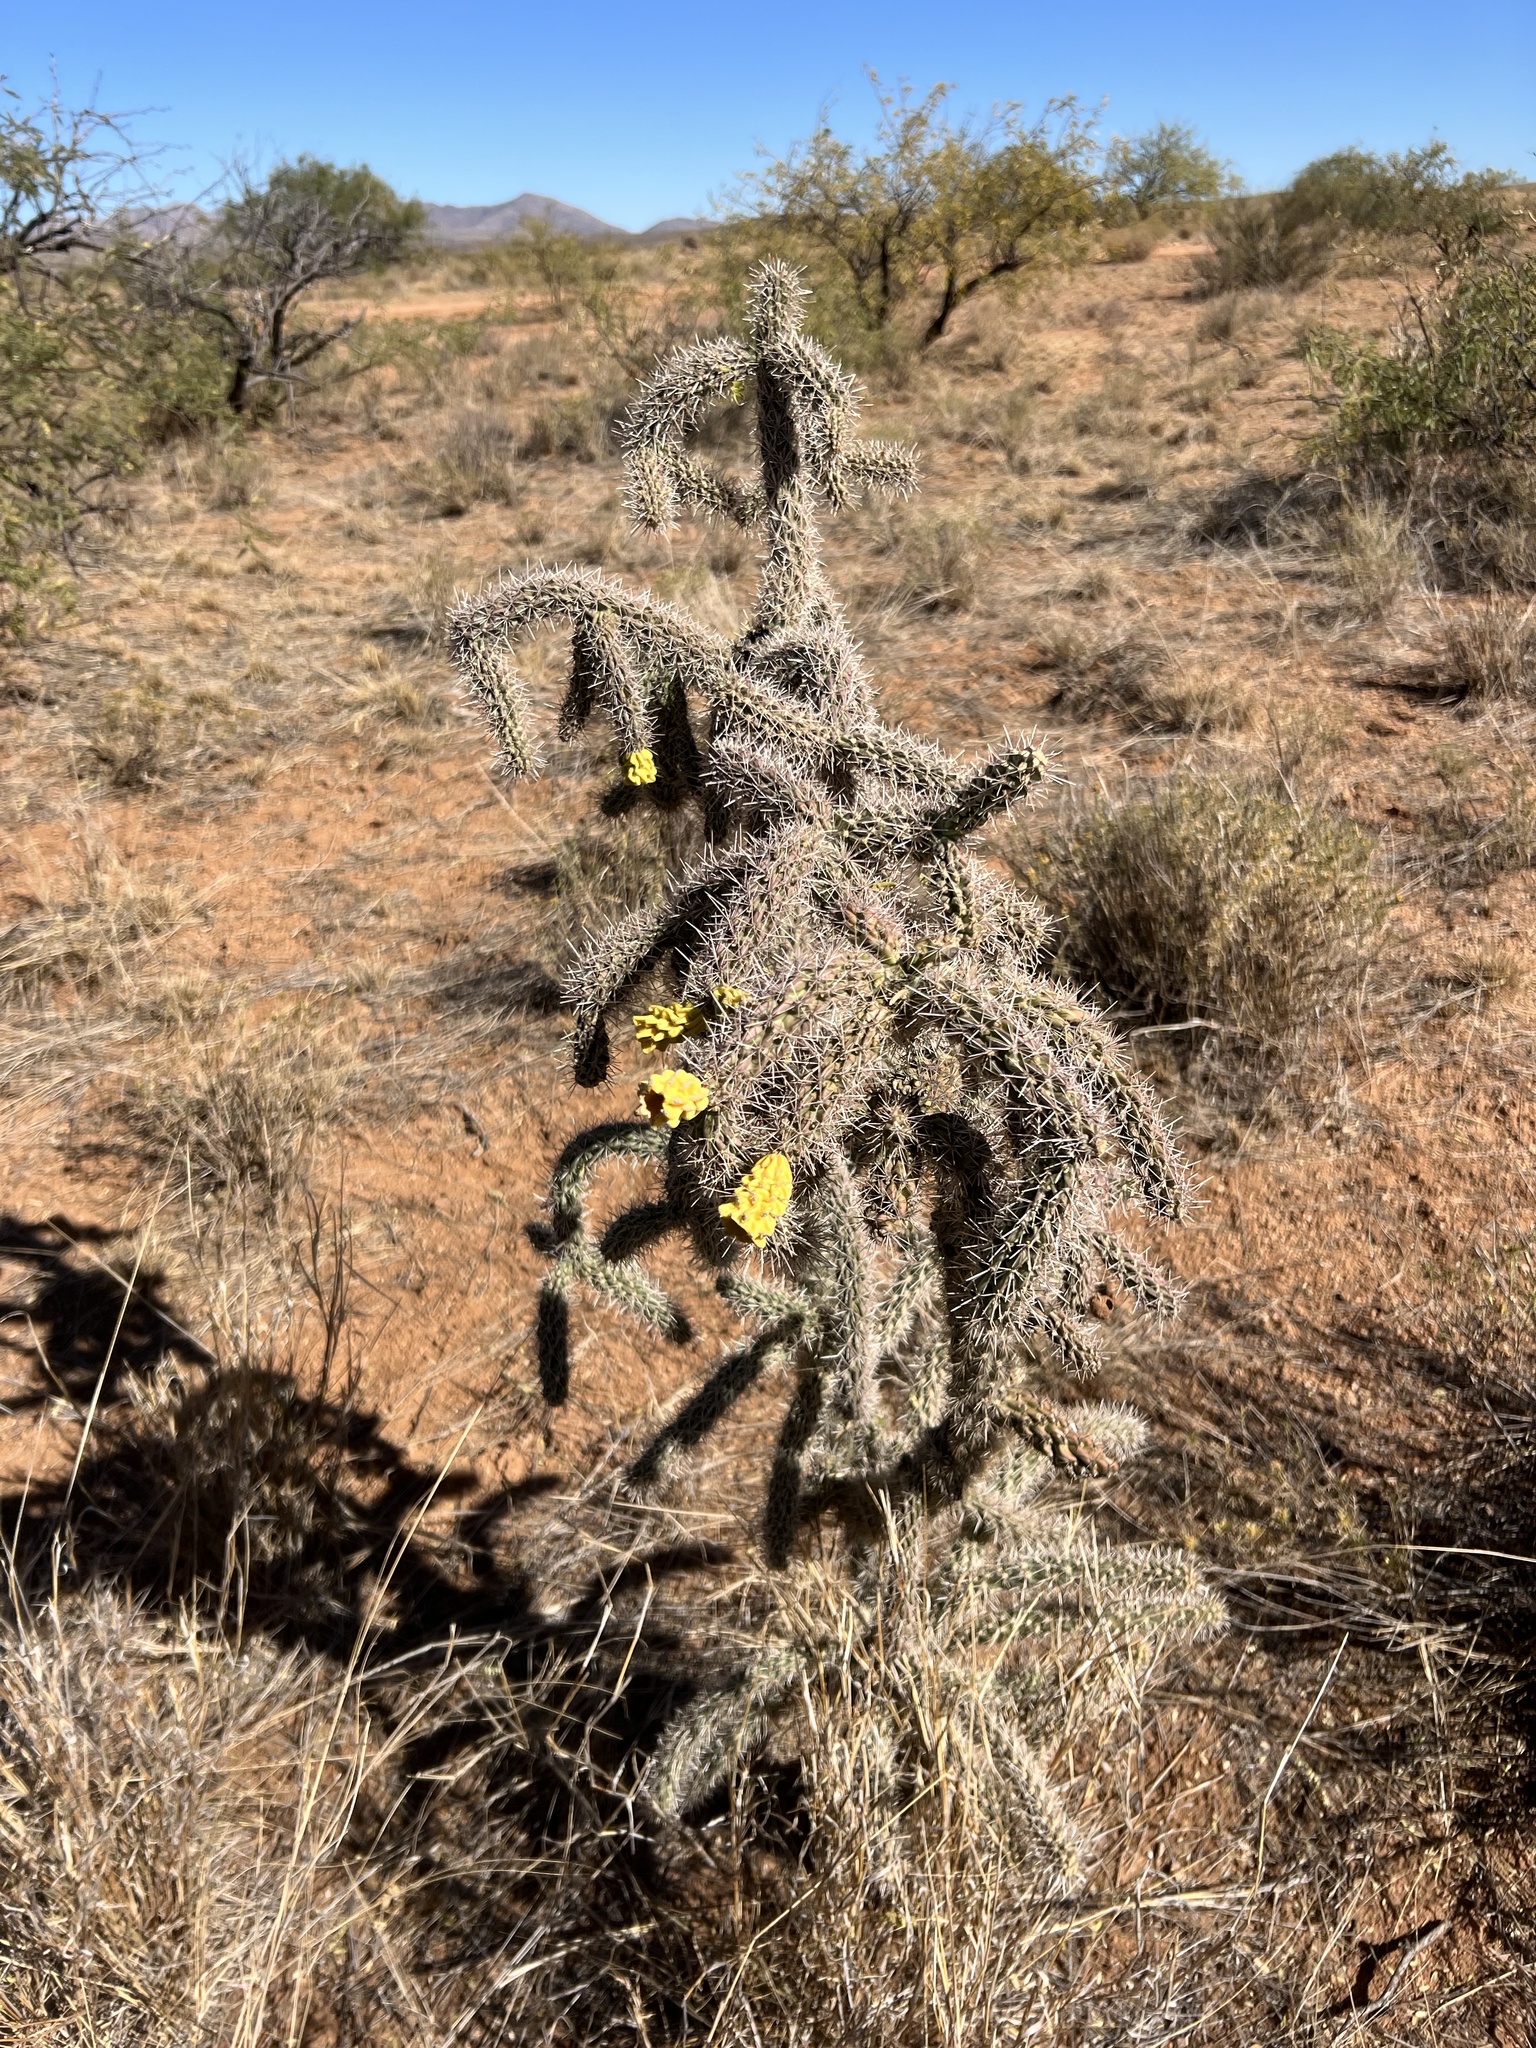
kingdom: Plantae
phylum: Tracheophyta
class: Magnoliopsida
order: Caryophyllales
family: Cactaceae
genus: Cylindropuntia
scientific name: Cylindropuntia imbricata
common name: Candelabrum cactus
